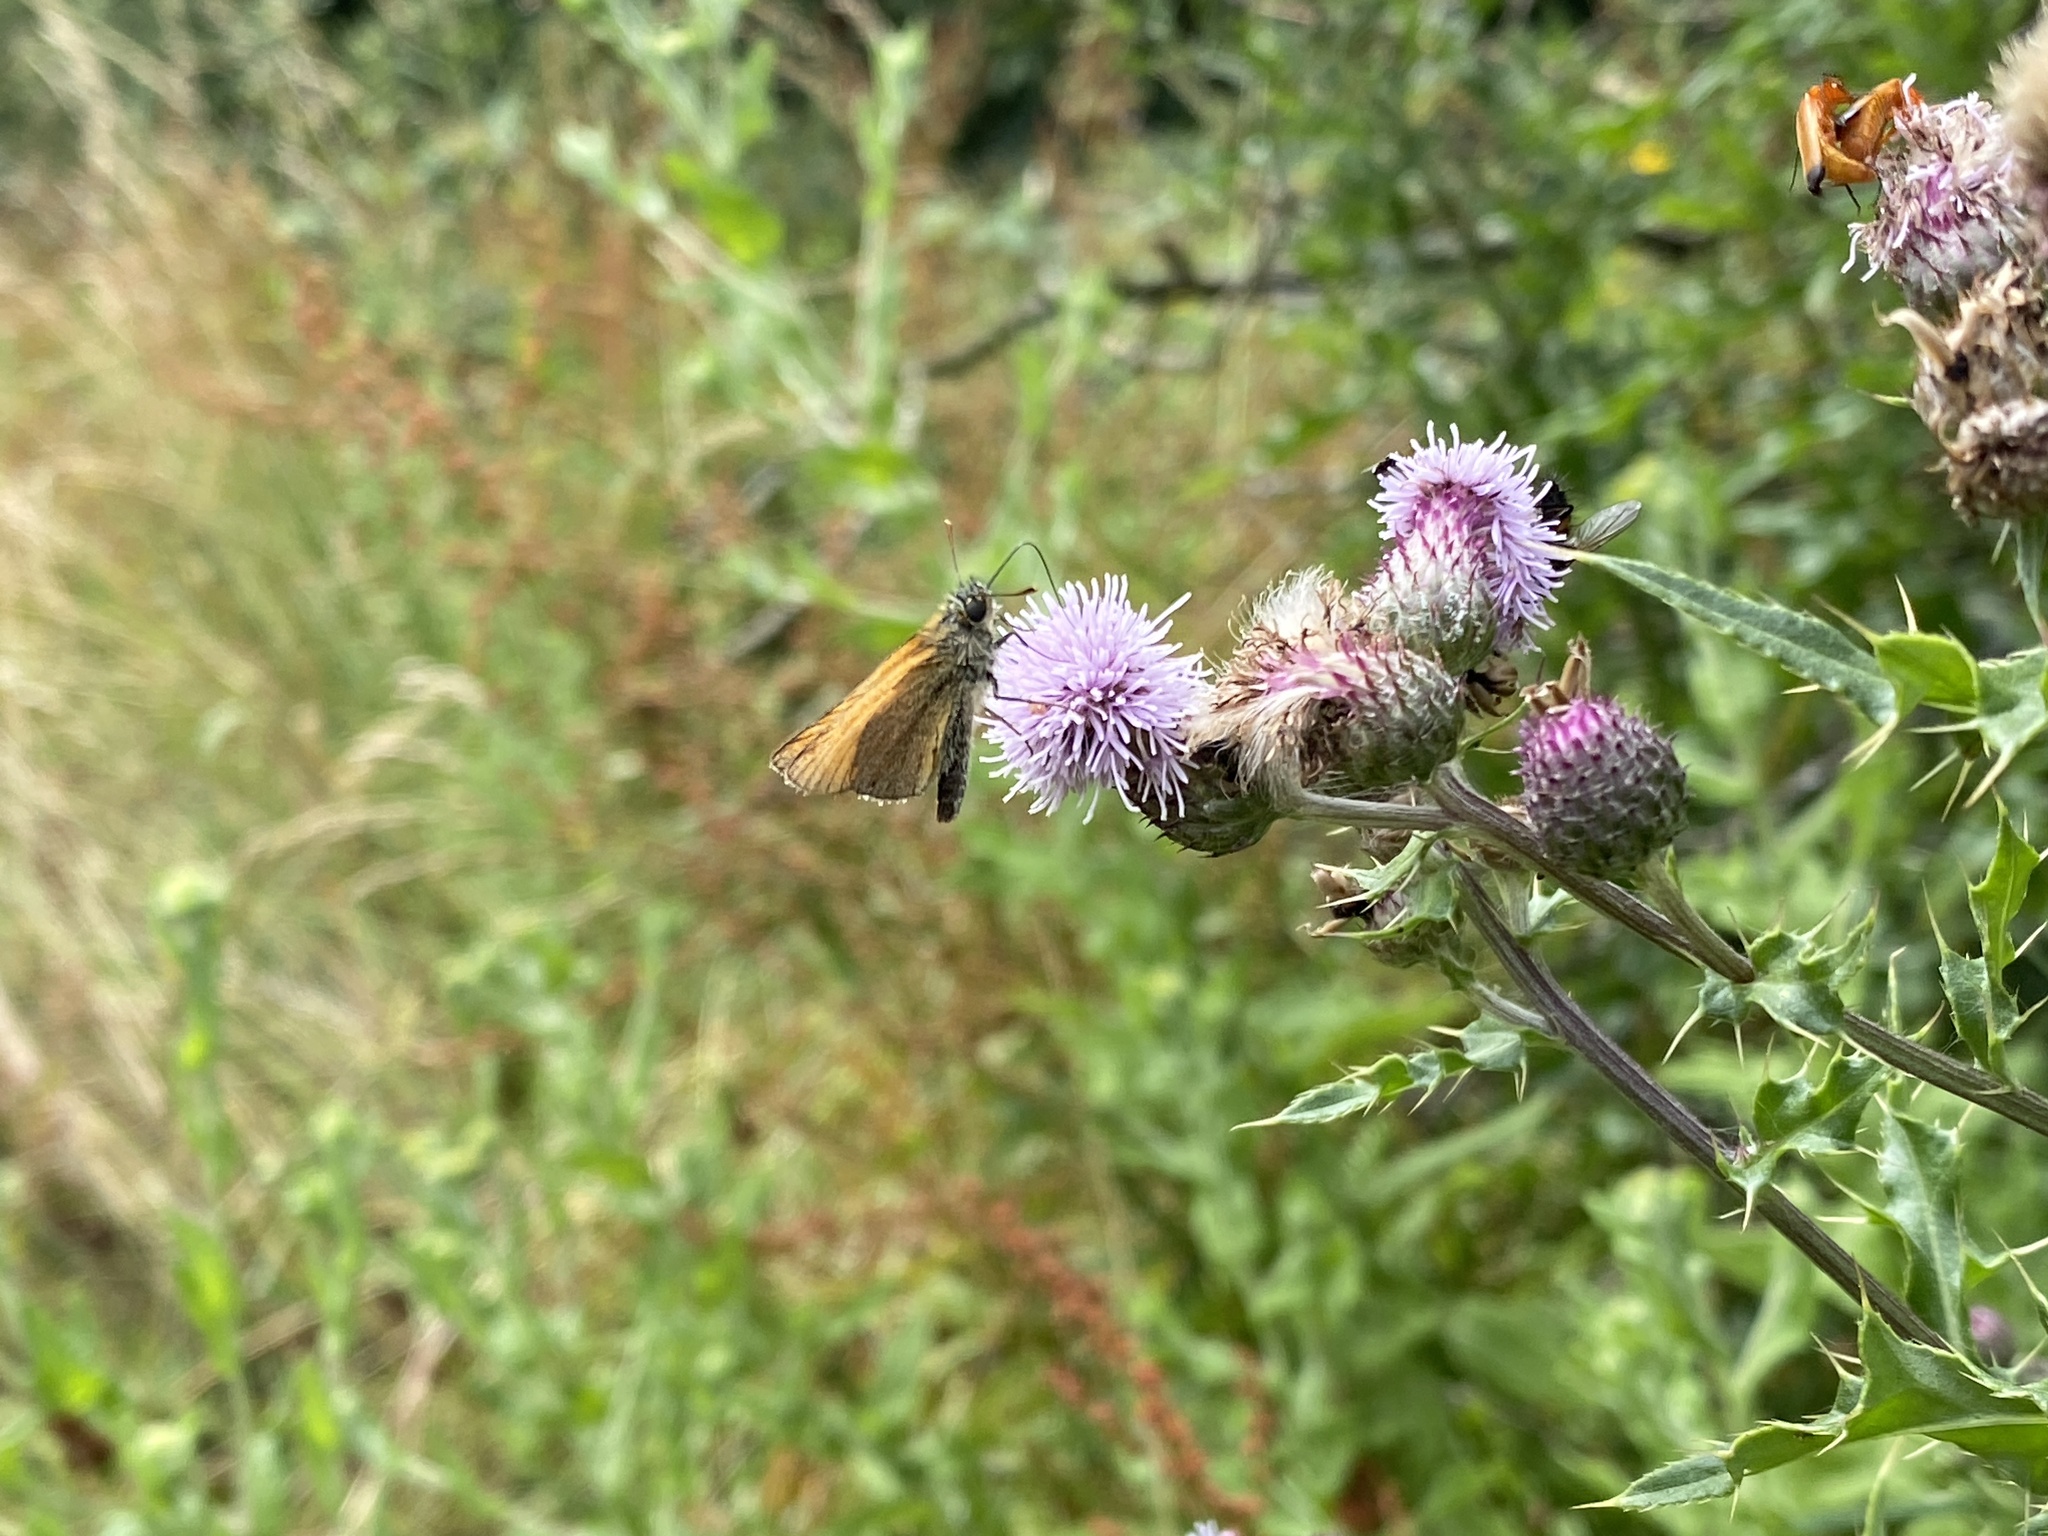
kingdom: Animalia
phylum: Arthropoda
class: Insecta
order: Lepidoptera
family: Hesperiidae
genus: Thymelicus
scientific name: Thymelicus sylvestris
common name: Small skipper
